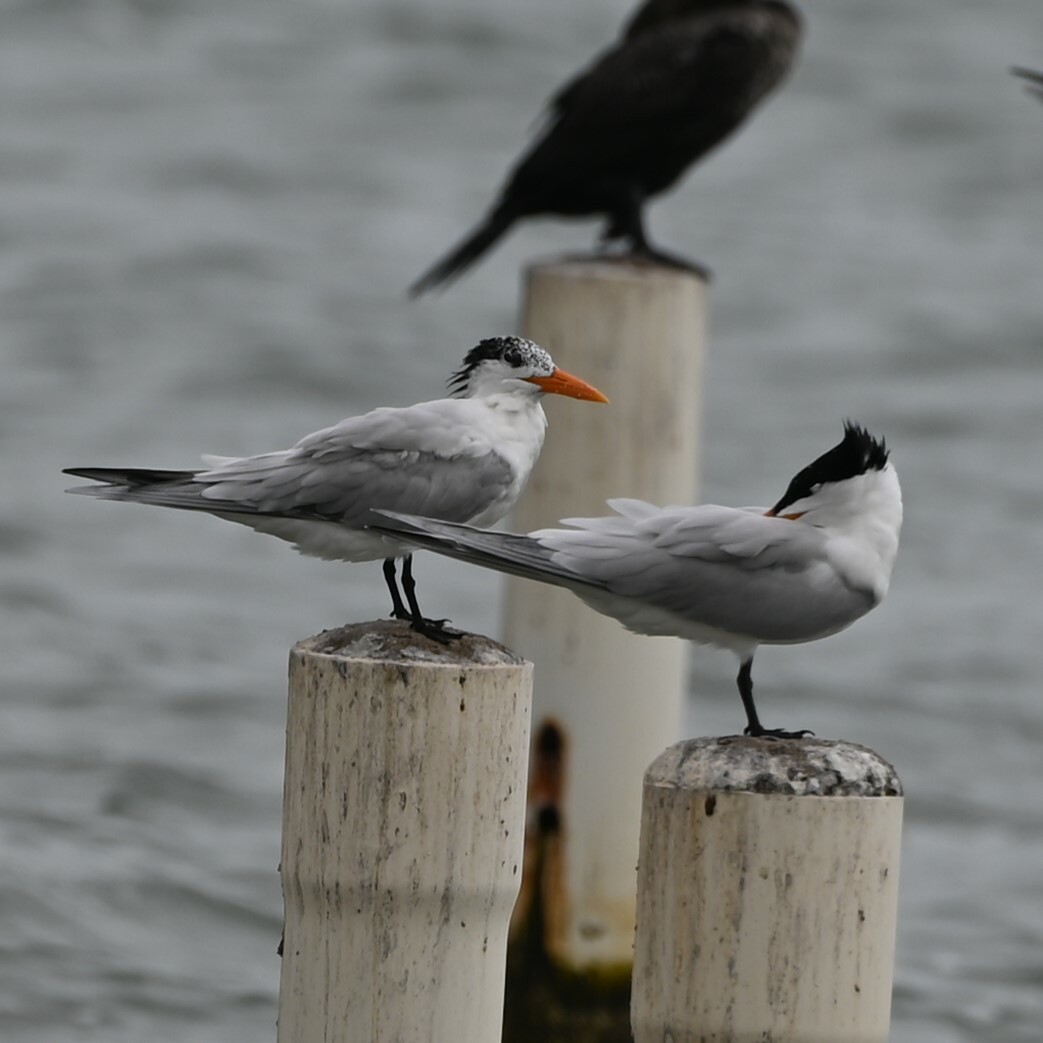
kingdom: Animalia
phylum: Chordata
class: Aves
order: Charadriiformes
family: Laridae
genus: Thalasseus
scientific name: Thalasseus maximus
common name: Royal tern
